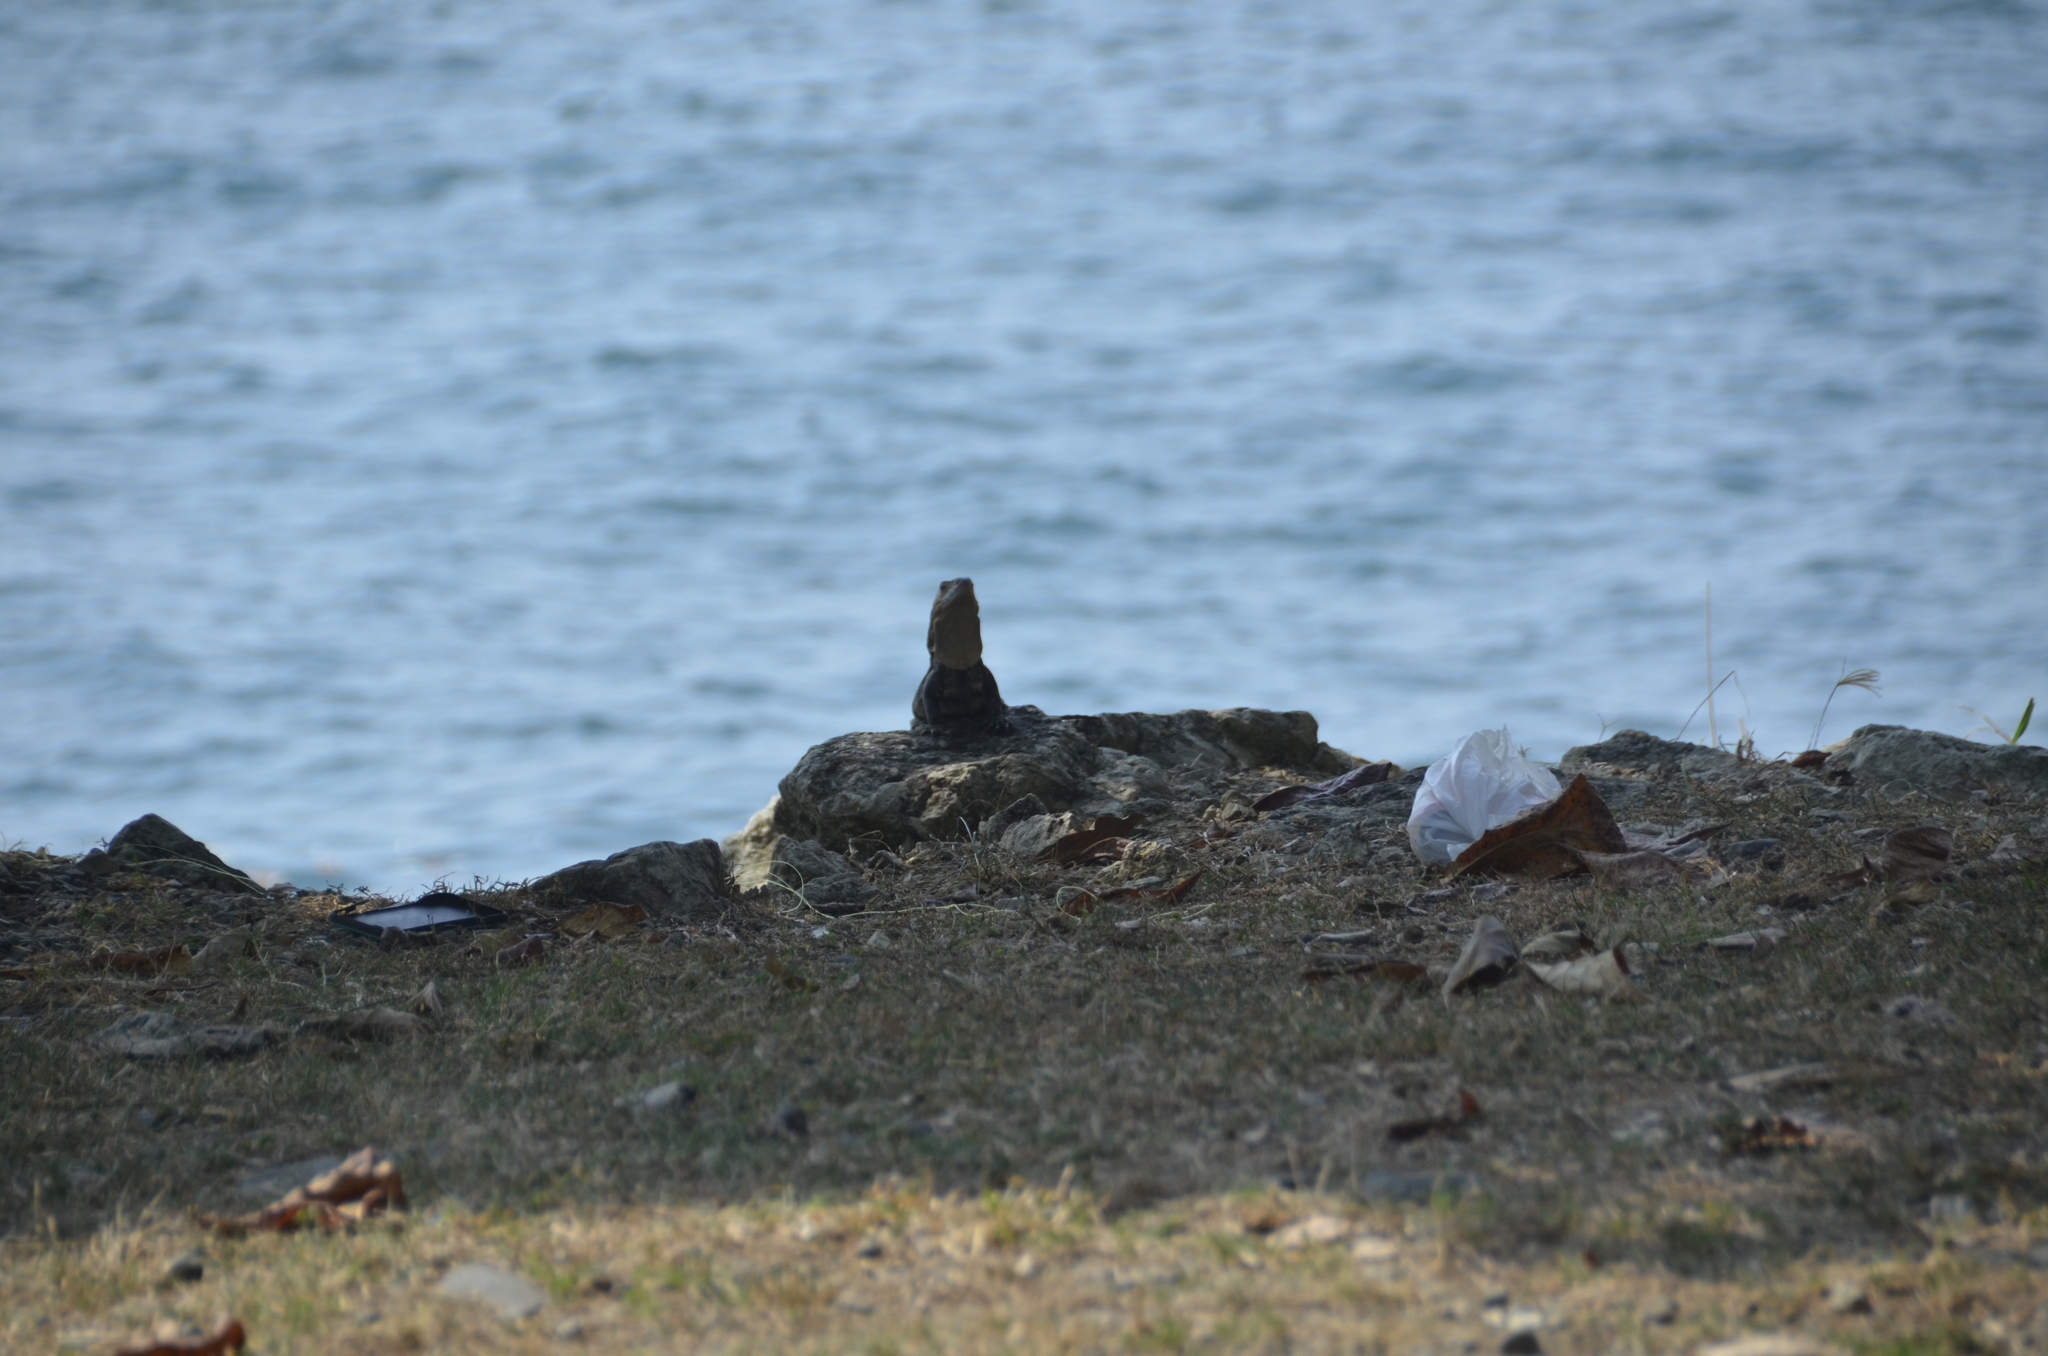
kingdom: Animalia
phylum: Chordata
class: Squamata
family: Iguanidae
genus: Ctenosaura
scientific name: Ctenosaura similis
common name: Black spiny-tailed iguana
